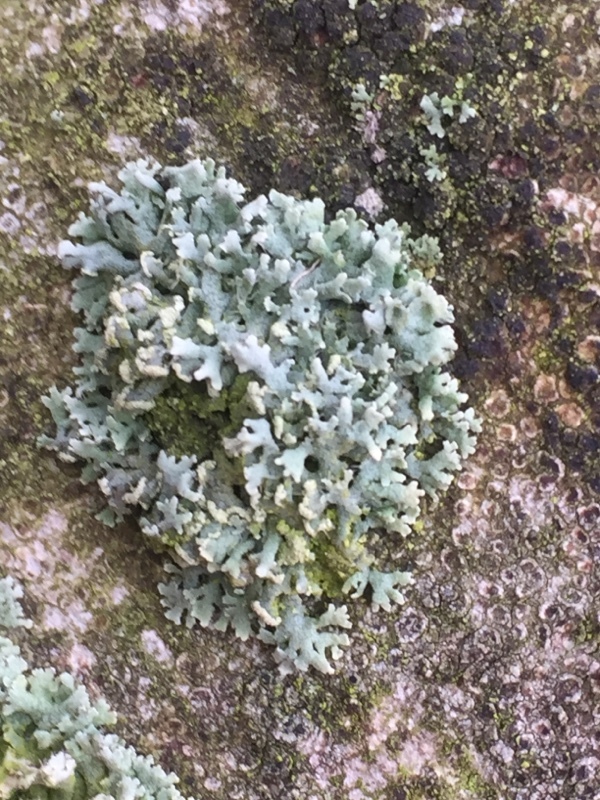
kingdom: Fungi
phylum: Ascomycota
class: Lecanoromycetes
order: Caliciales
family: Physciaceae
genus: Physcia
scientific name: Physcia tenella
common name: Fringed rosette lichen
